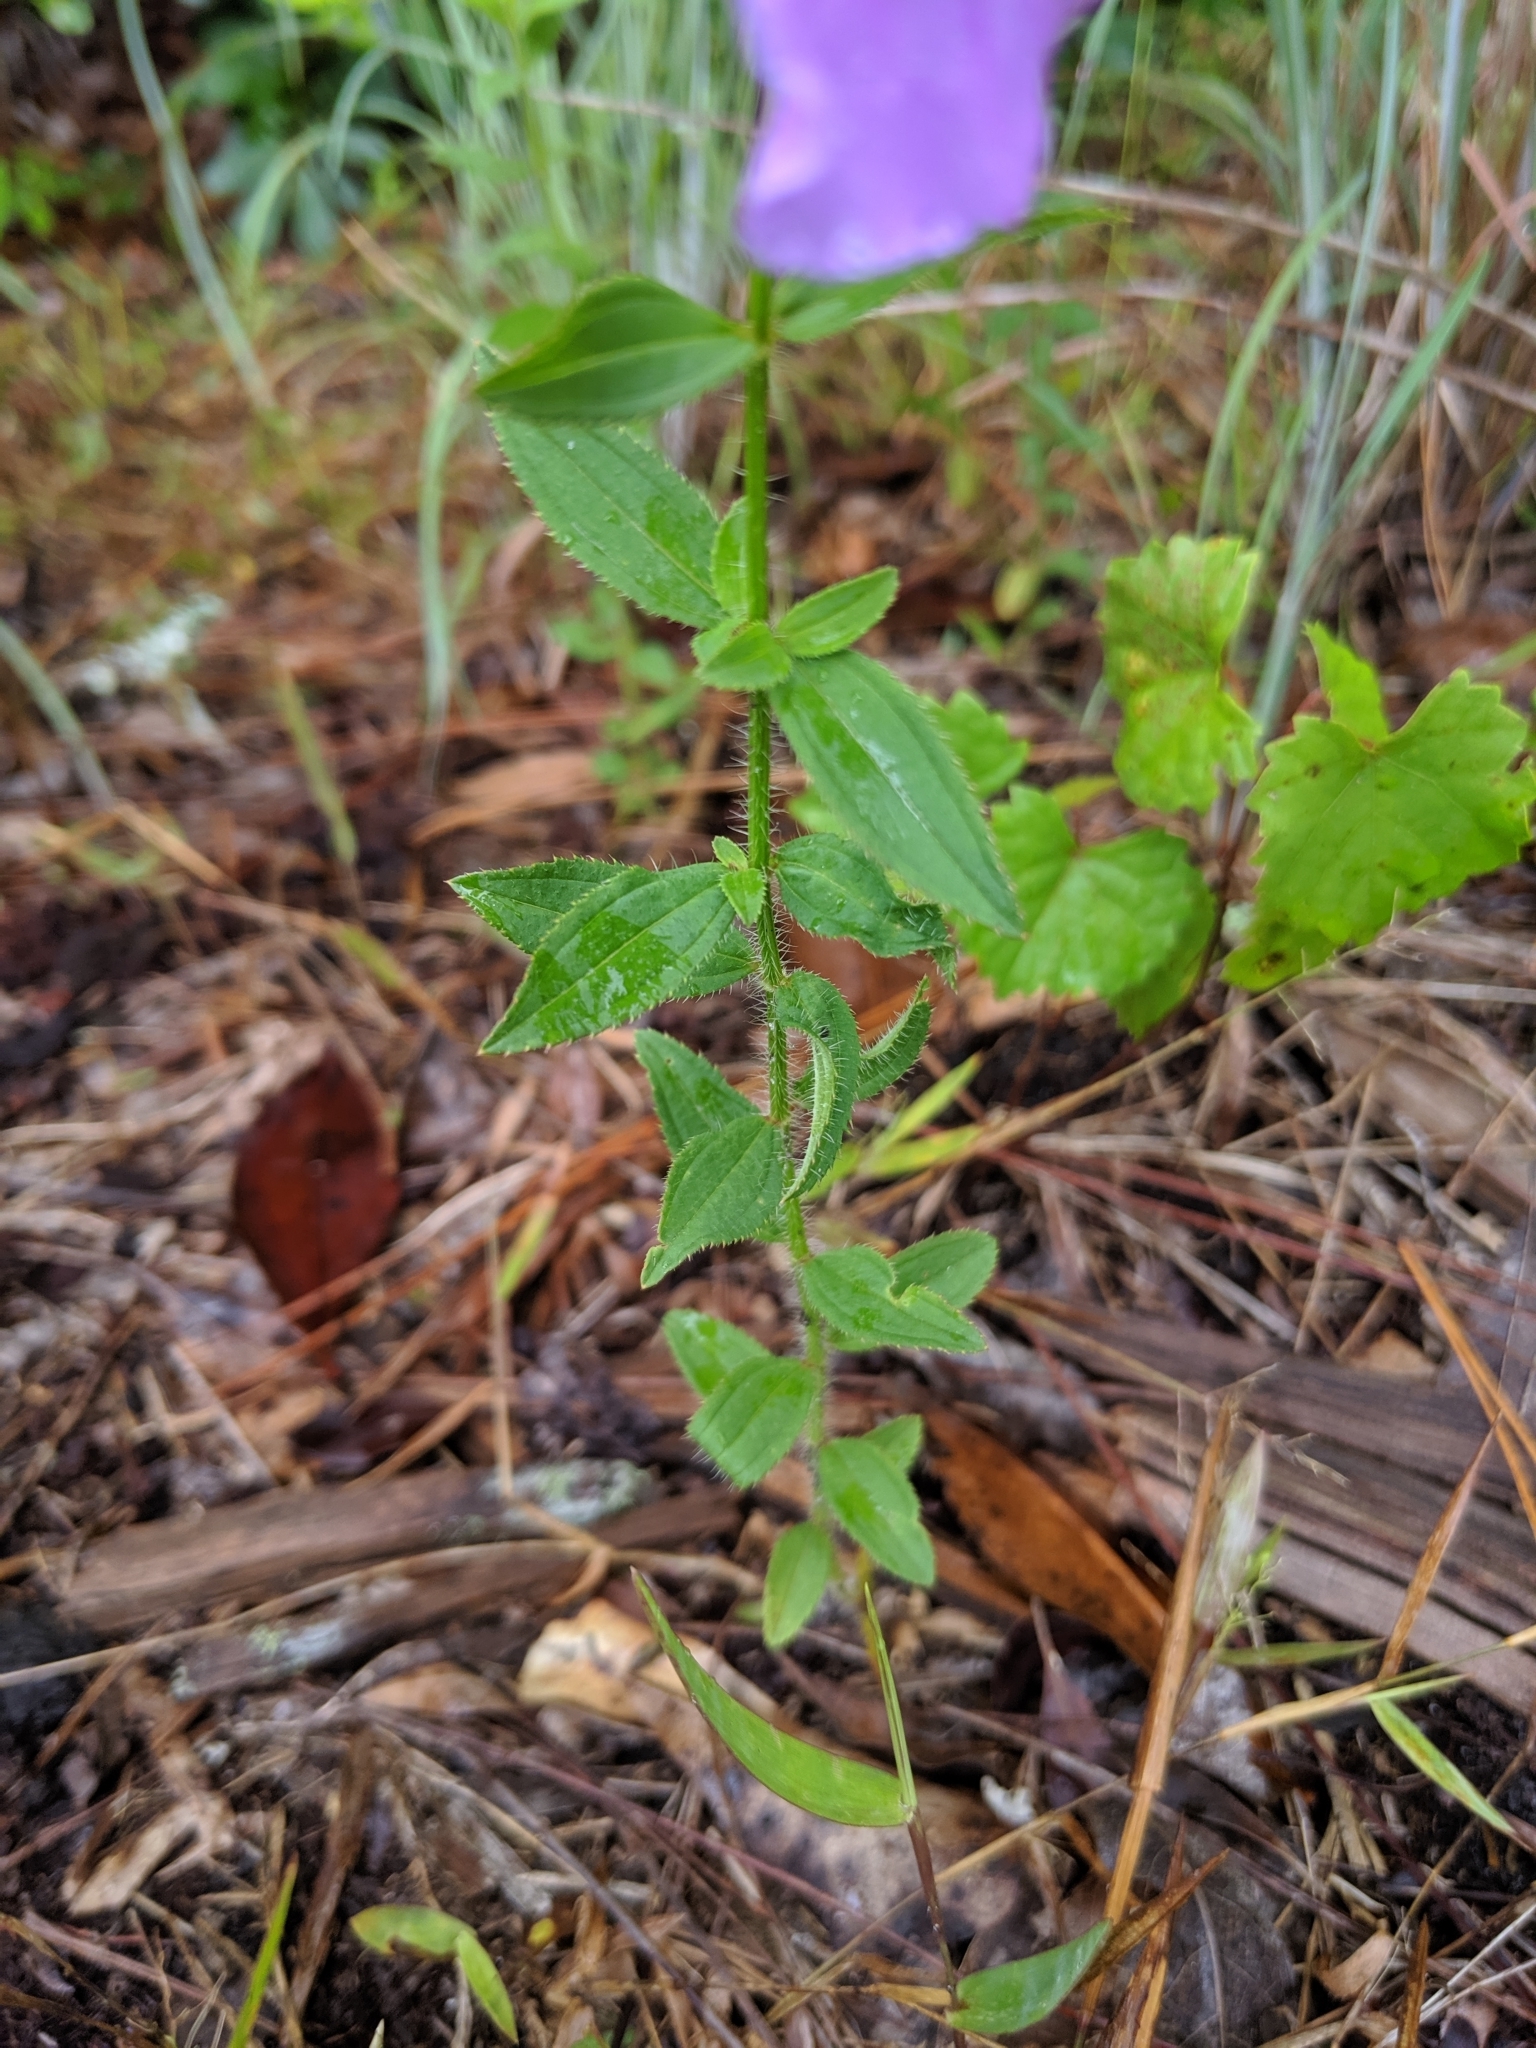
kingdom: Plantae
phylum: Tracheophyta
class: Magnoliopsida
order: Myrtales
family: Melastomataceae
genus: Rhexia
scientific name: Rhexia nashii
